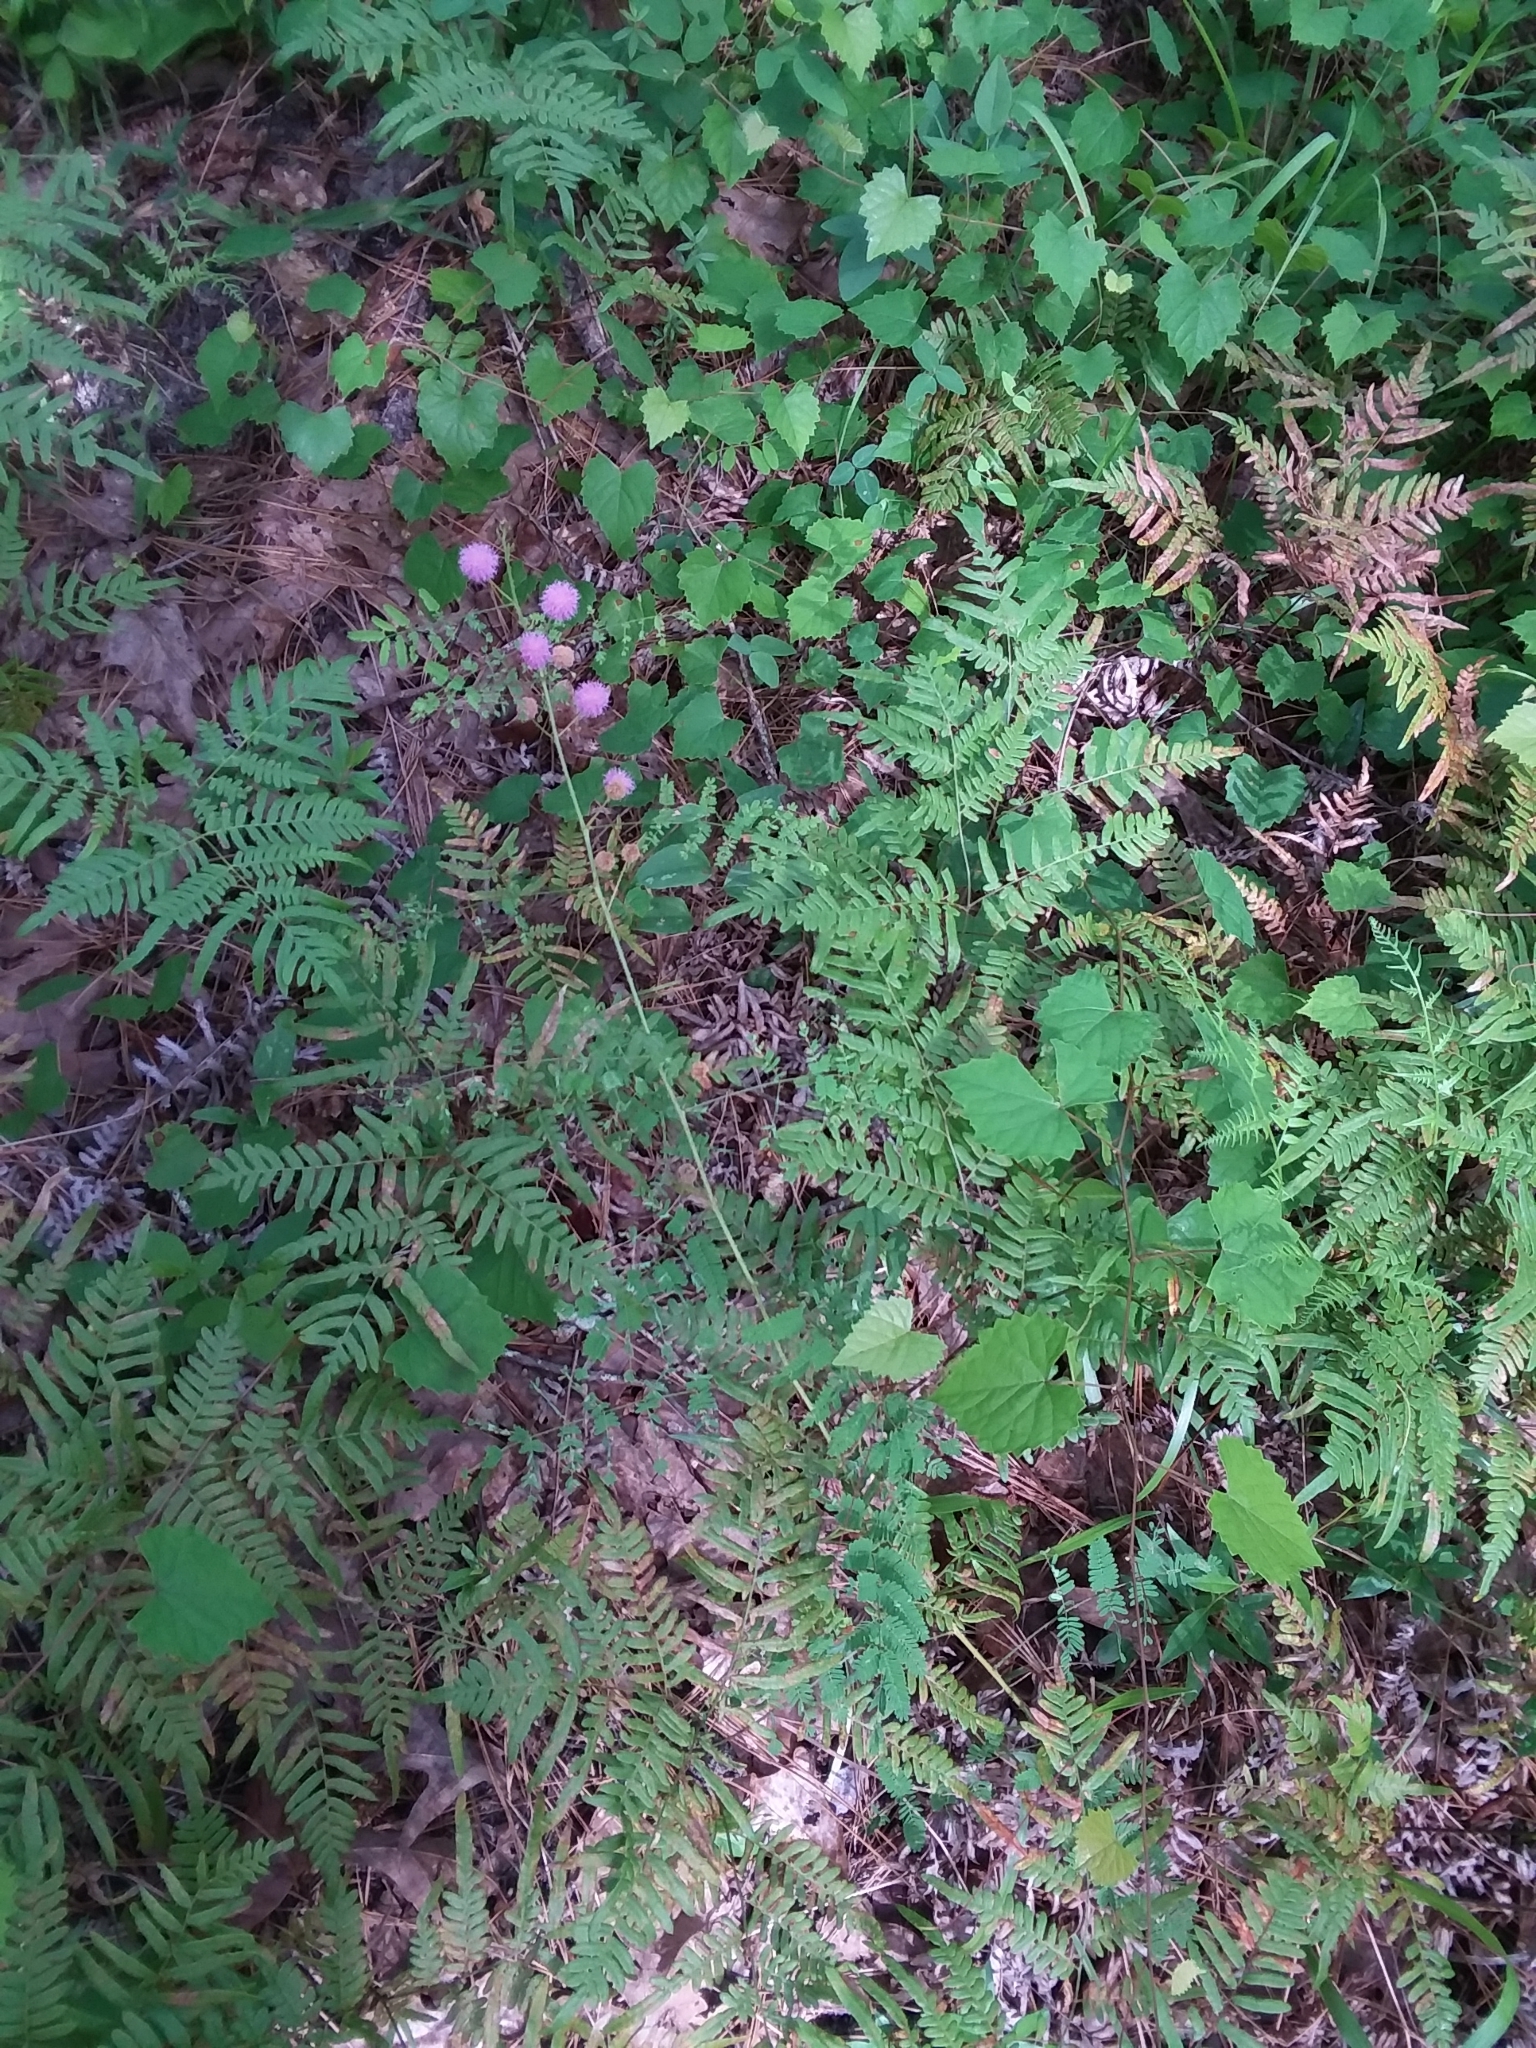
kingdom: Plantae
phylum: Tracheophyta
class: Magnoliopsida
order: Fabales
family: Fabaceae
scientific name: Fabaceae
